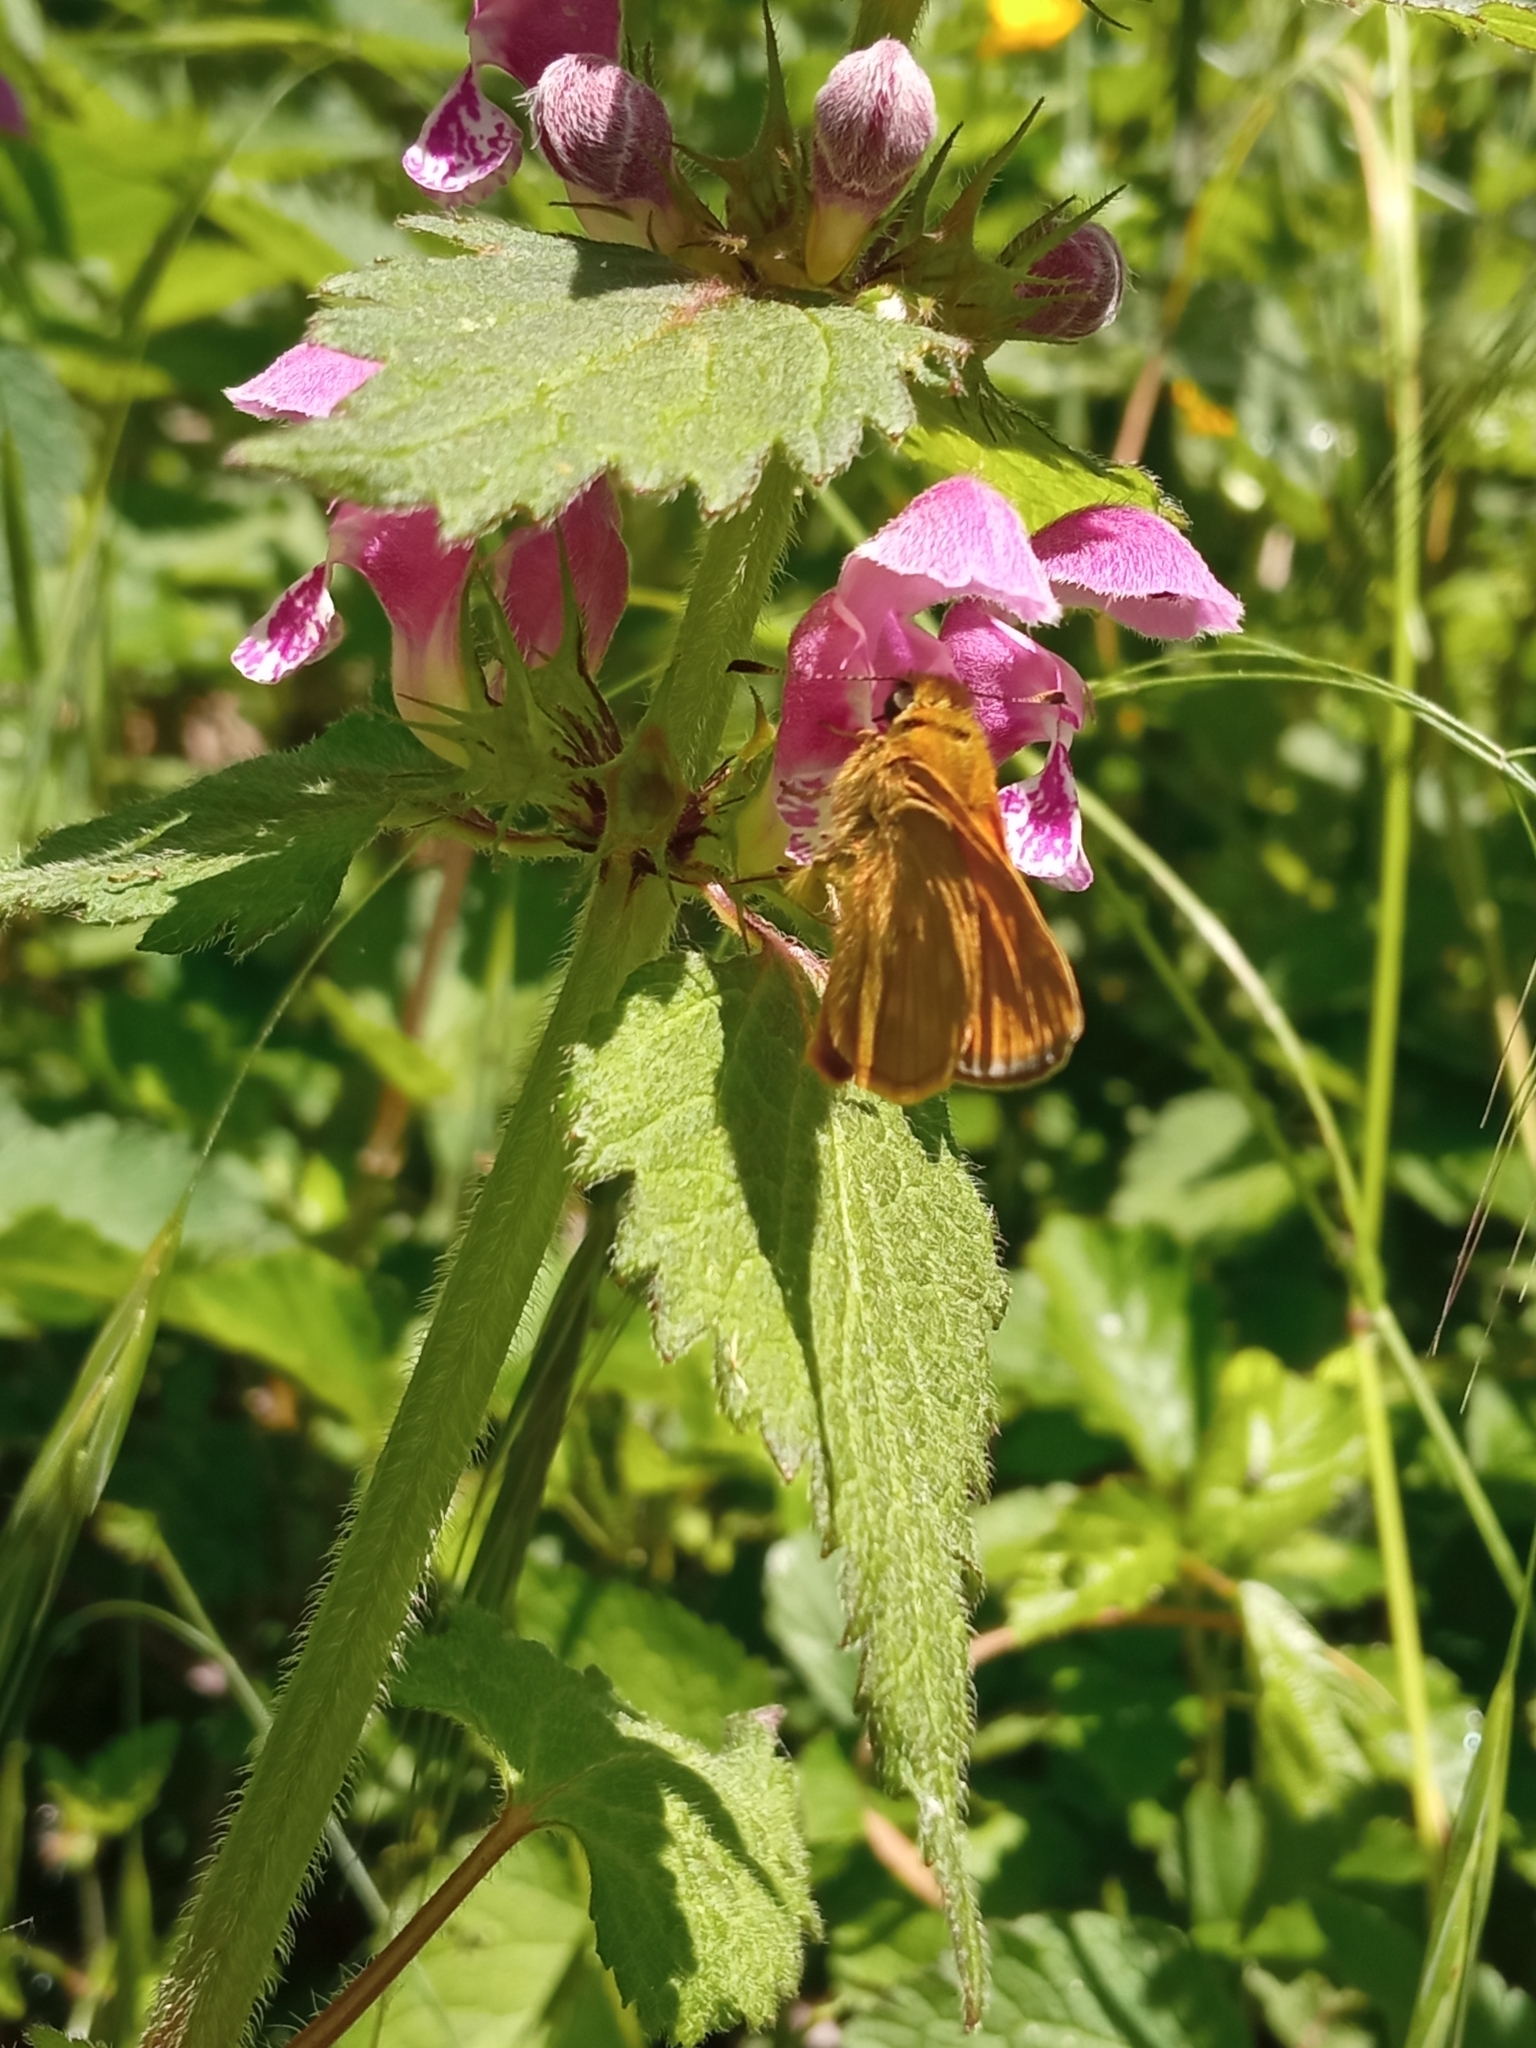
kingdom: Animalia
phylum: Arthropoda
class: Insecta
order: Lepidoptera
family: Hesperiidae
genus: Ochlodes
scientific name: Ochlodes venata
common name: Large skipper
